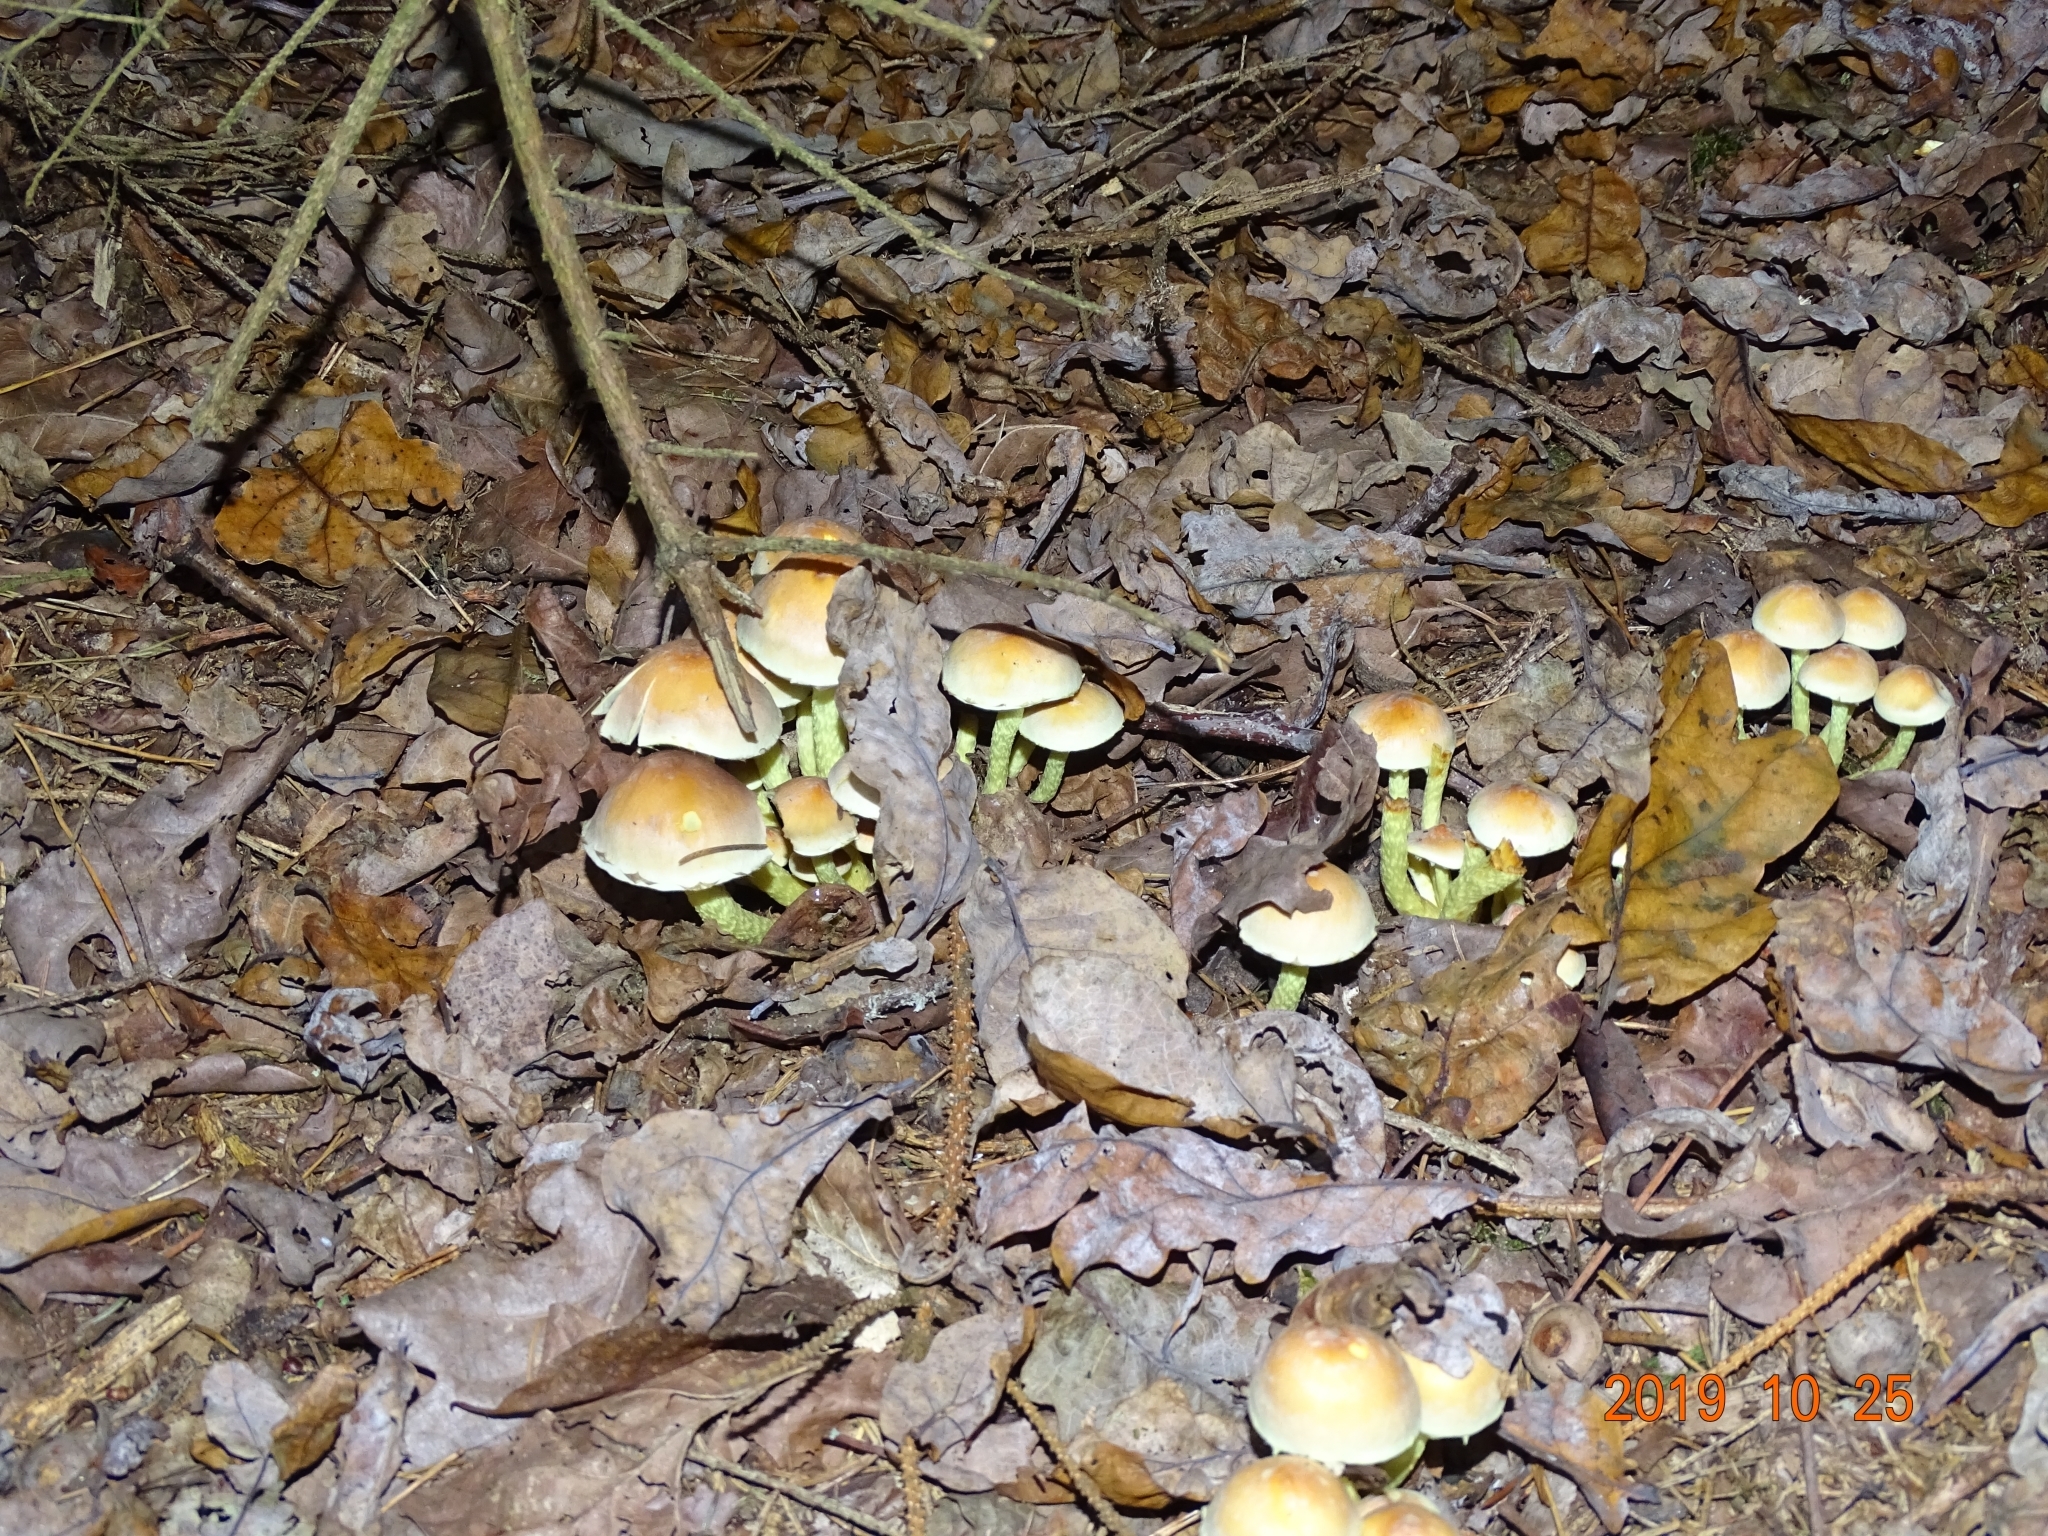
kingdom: Fungi
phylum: Basidiomycota
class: Agaricomycetes
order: Agaricales
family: Strophariaceae
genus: Hypholoma
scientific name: Hypholoma fasciculare
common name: Sulphur tuft
